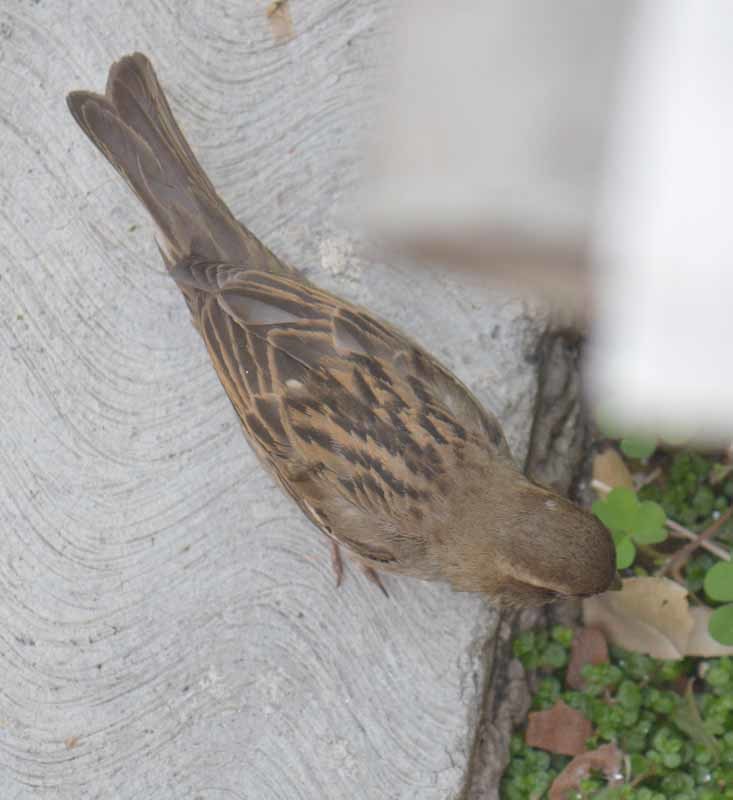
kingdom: Animalia
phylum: Chordata
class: Aves
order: Passeriformes
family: Passeridae
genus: Passer
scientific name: Passer domesticus
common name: House sparrow
